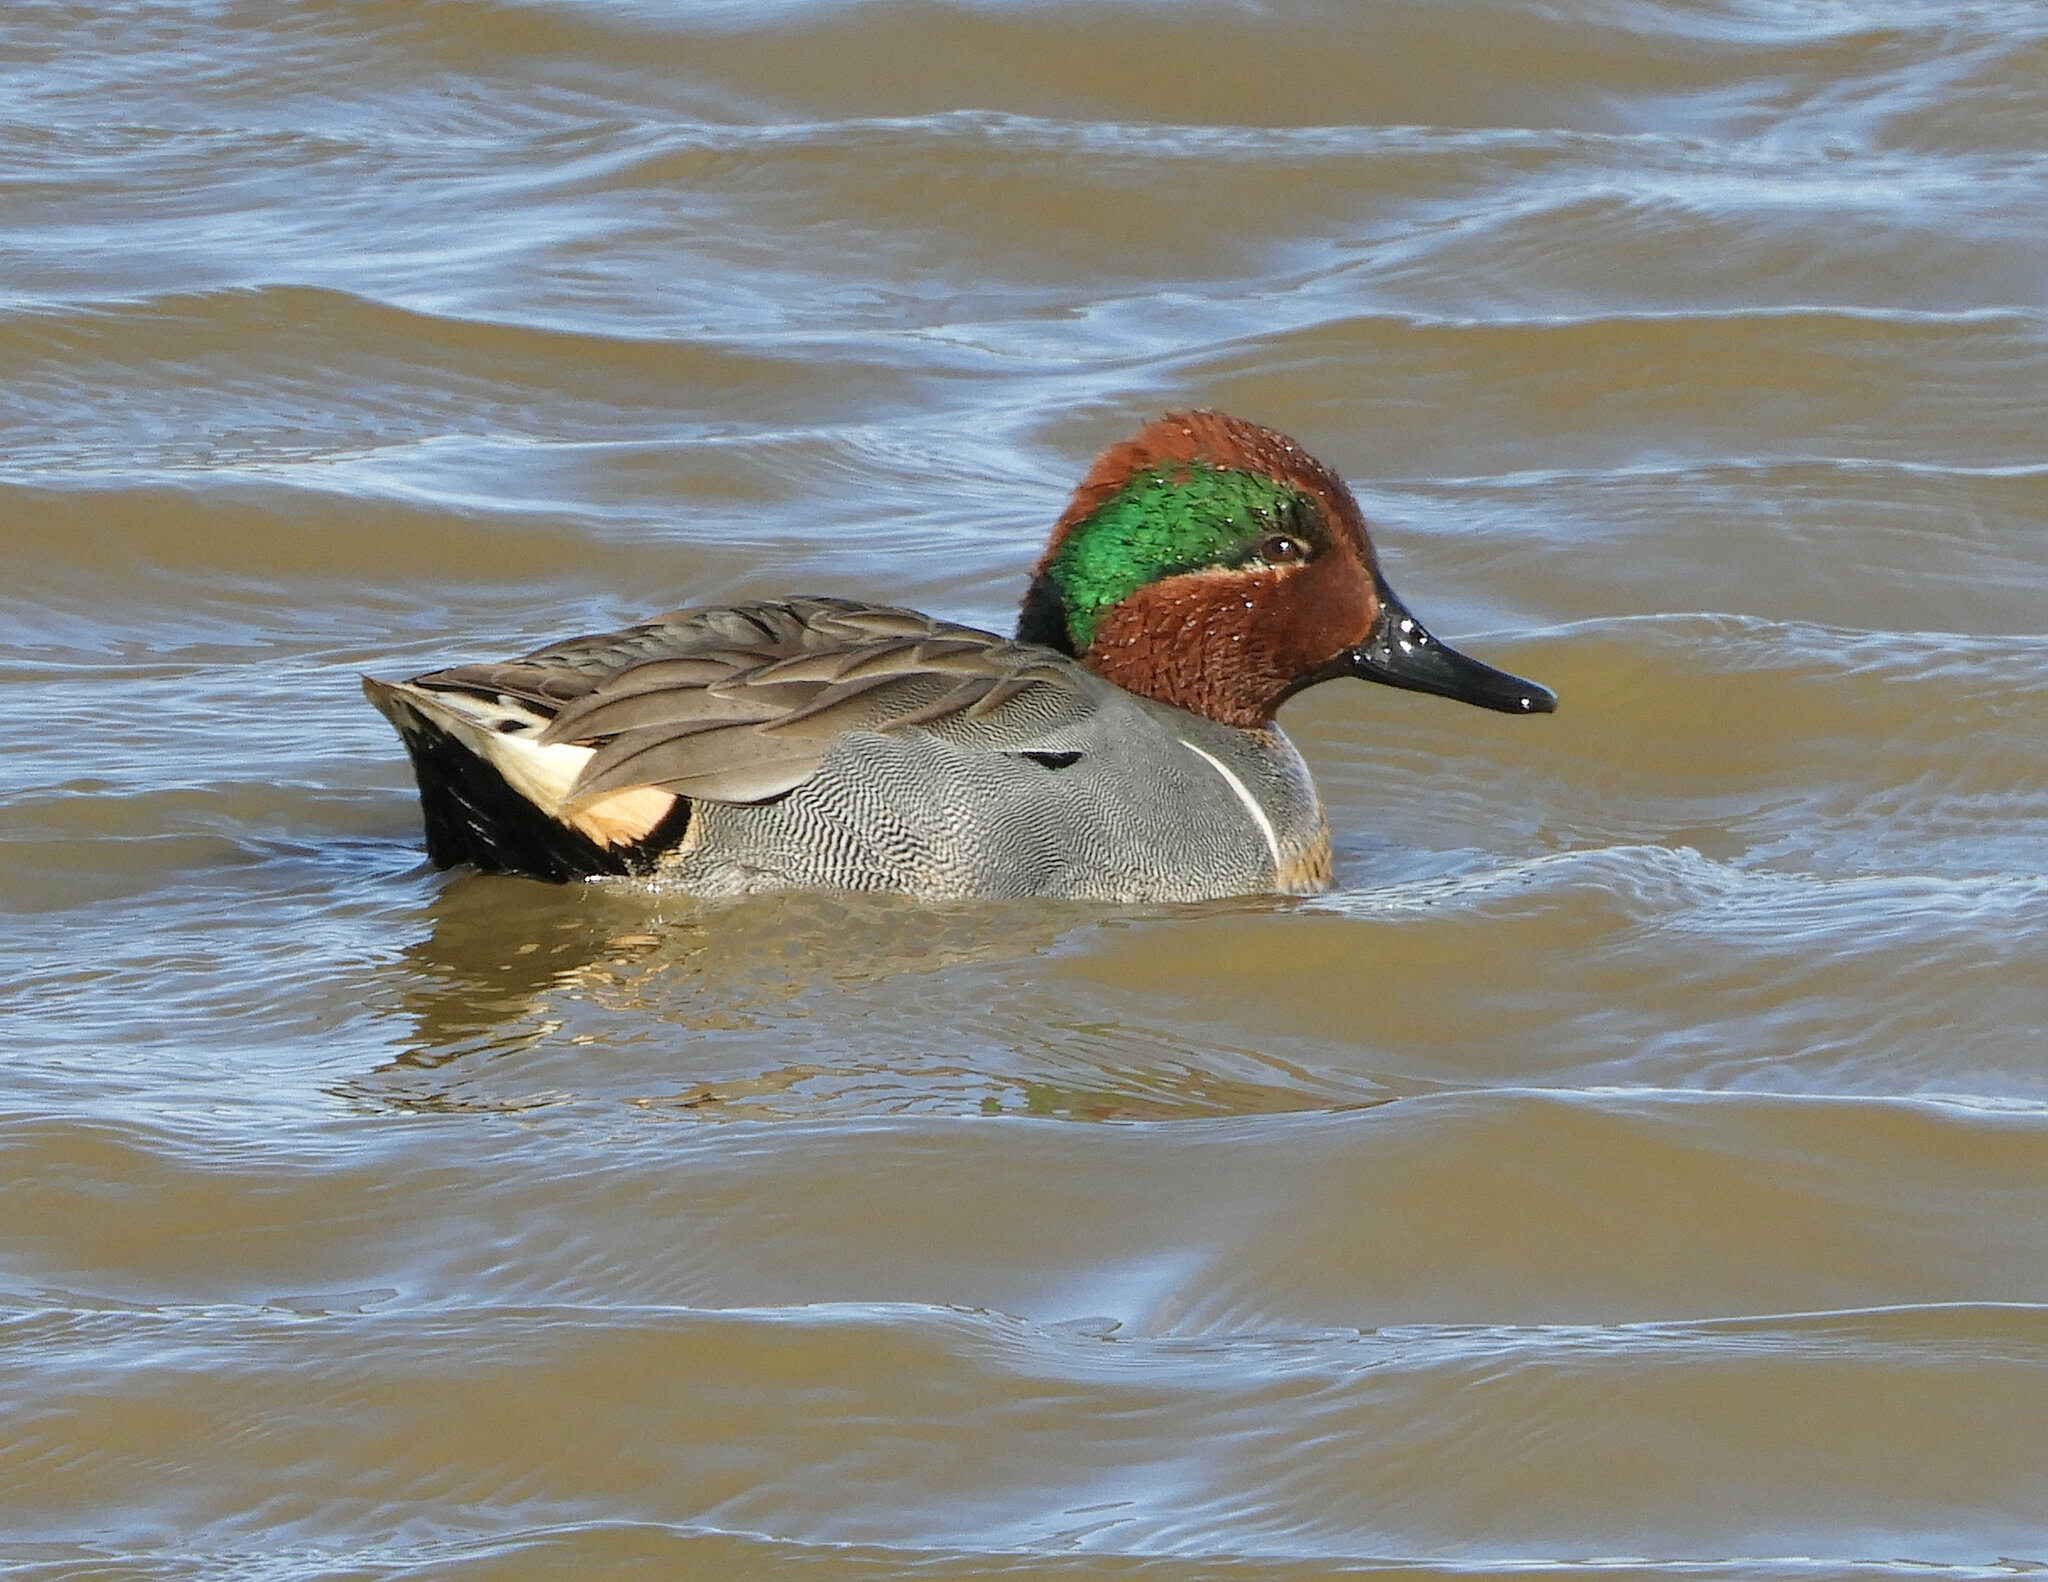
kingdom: Animalia
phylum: Chordata
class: Aves
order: Anseriformes
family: Anatidae
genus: Anas
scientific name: Anas carolinensis
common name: Green-winged teal
